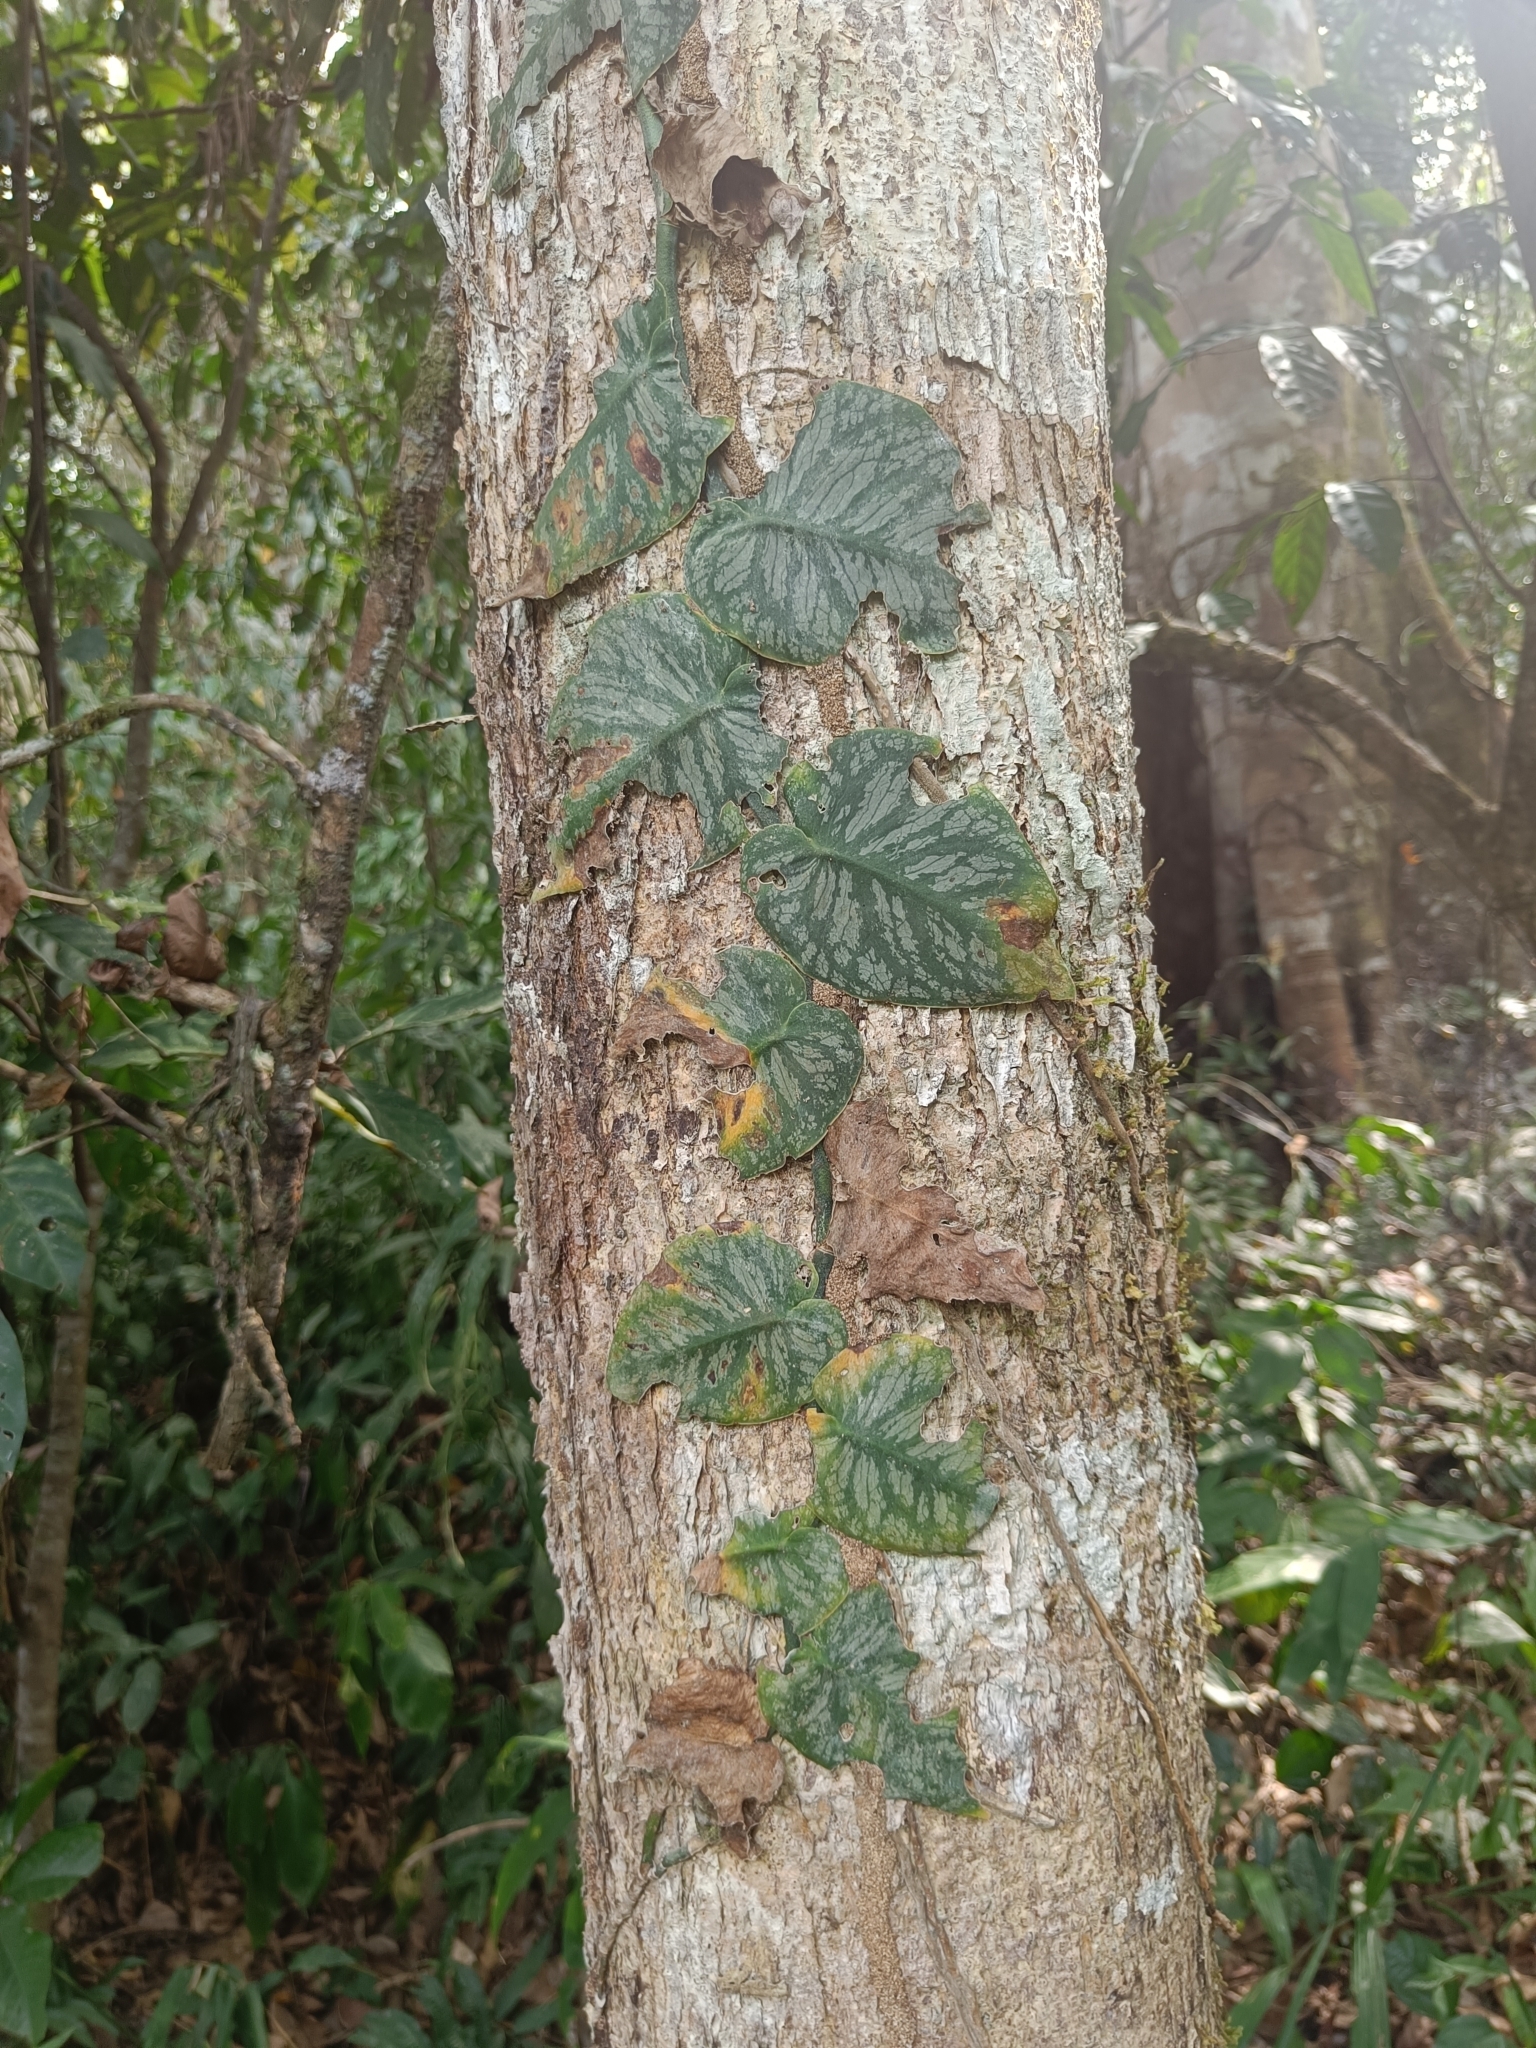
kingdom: Plantae
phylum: Tracheophyta
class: Liliopsida
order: Alismatales
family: Araceae
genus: Monstera
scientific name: Monstera dubia
